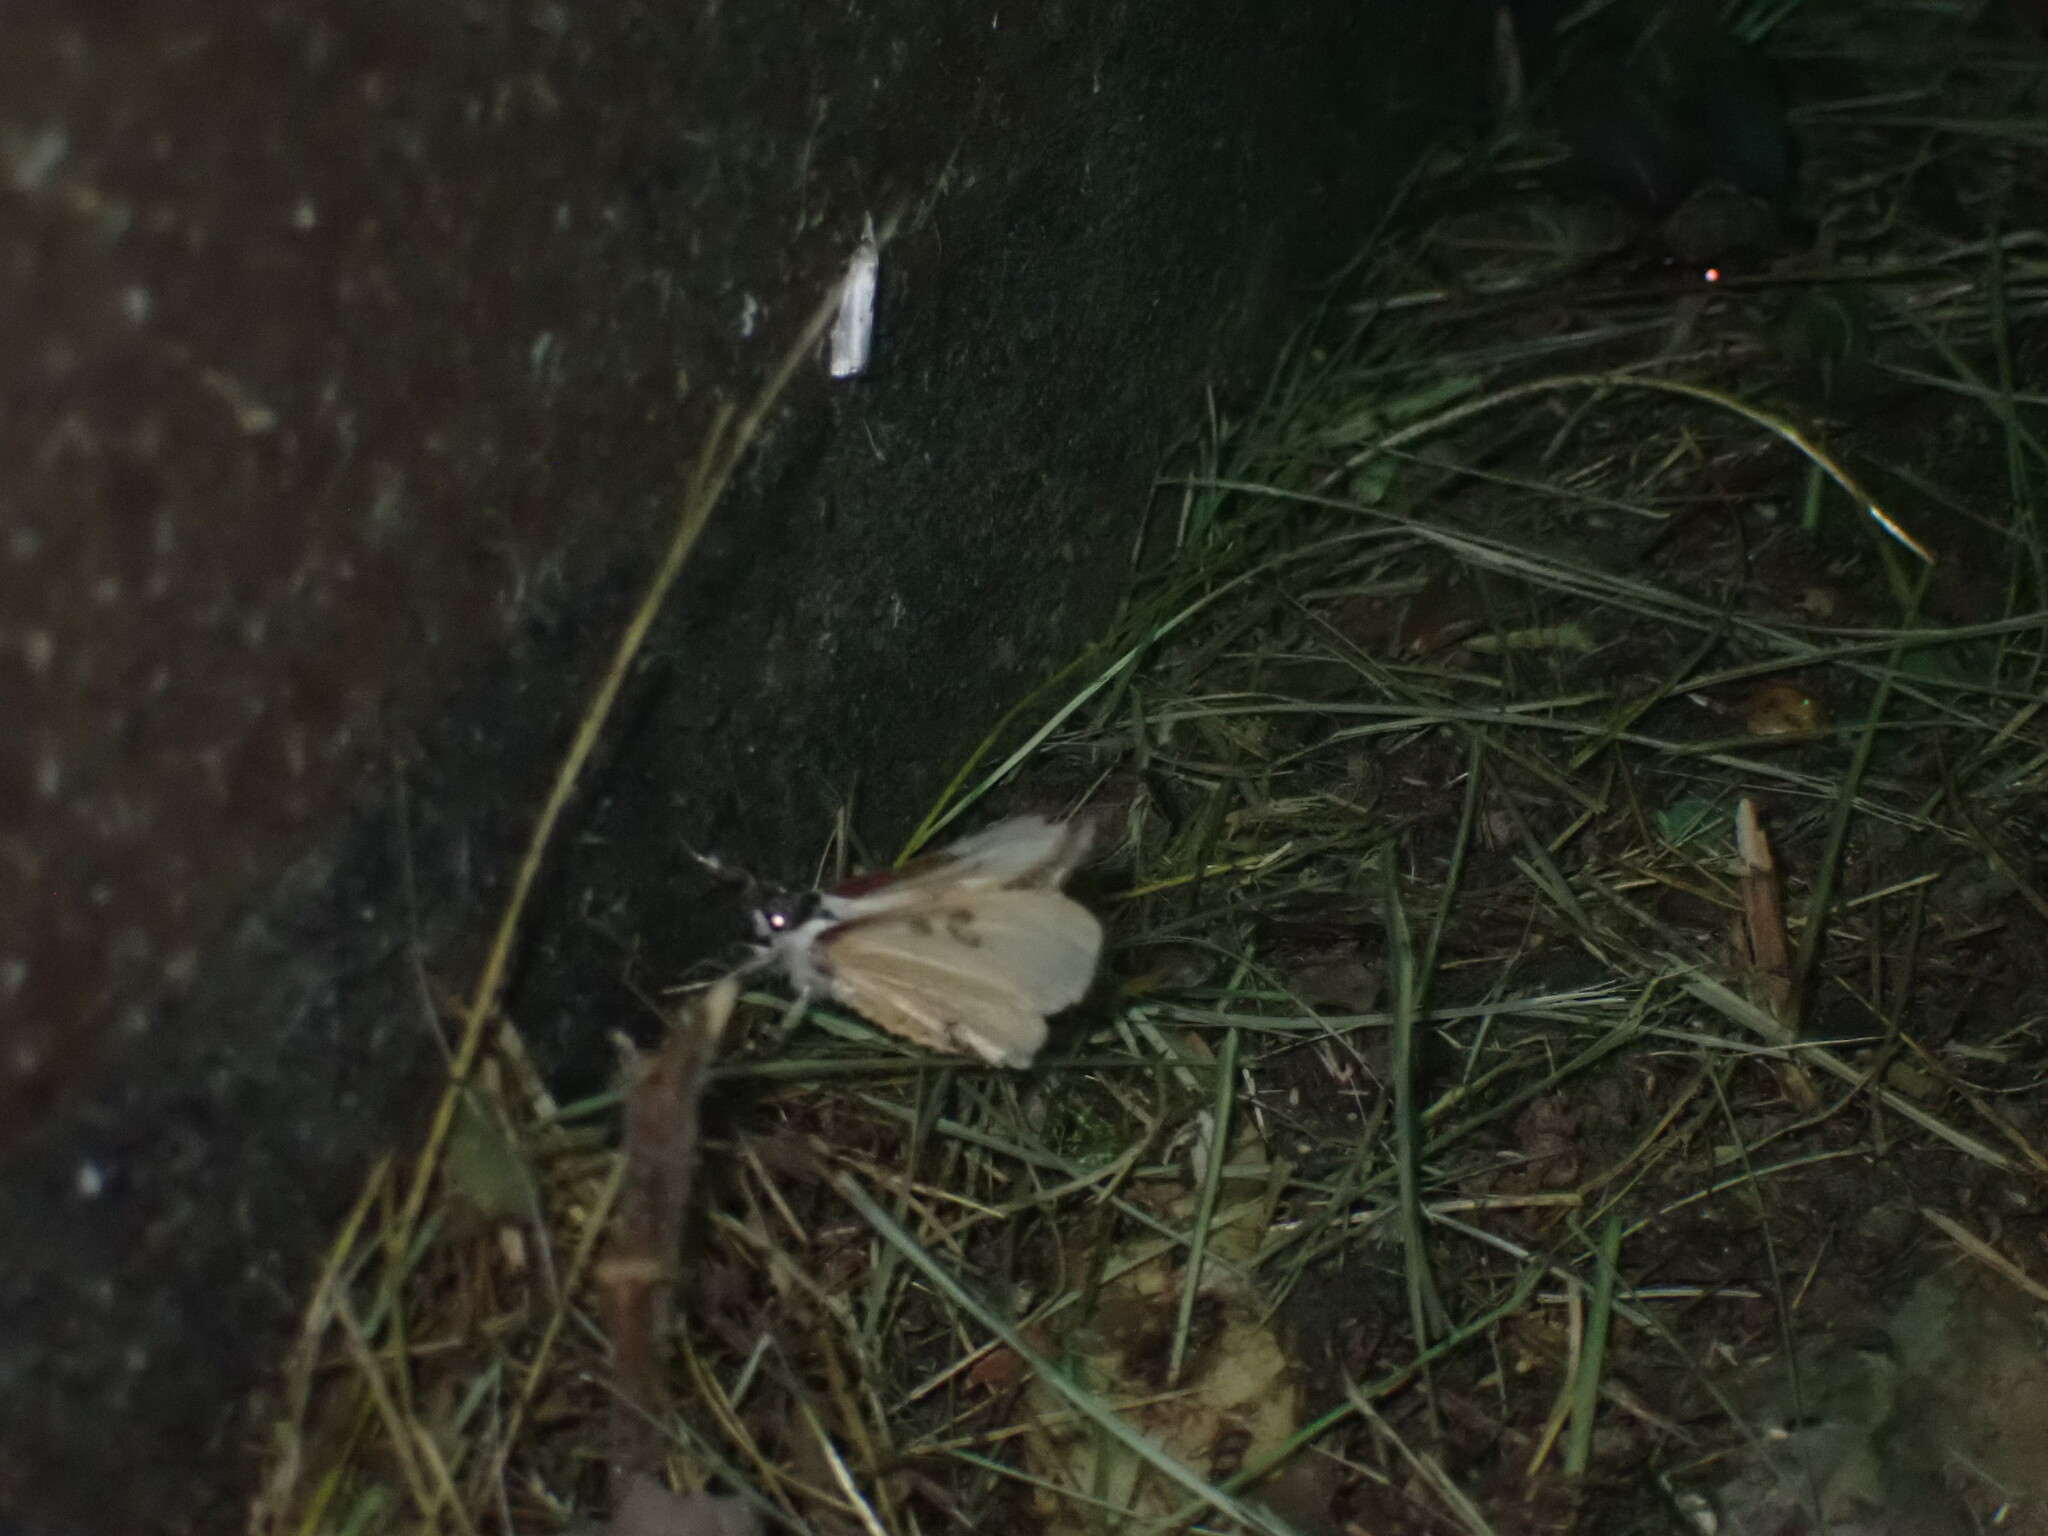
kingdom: Animalia
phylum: Arthropoda
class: Insecta
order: Lepidoptera
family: Noctuidae
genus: Eudryas
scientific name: Eudryas grata
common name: Beautiful wood-nymph
